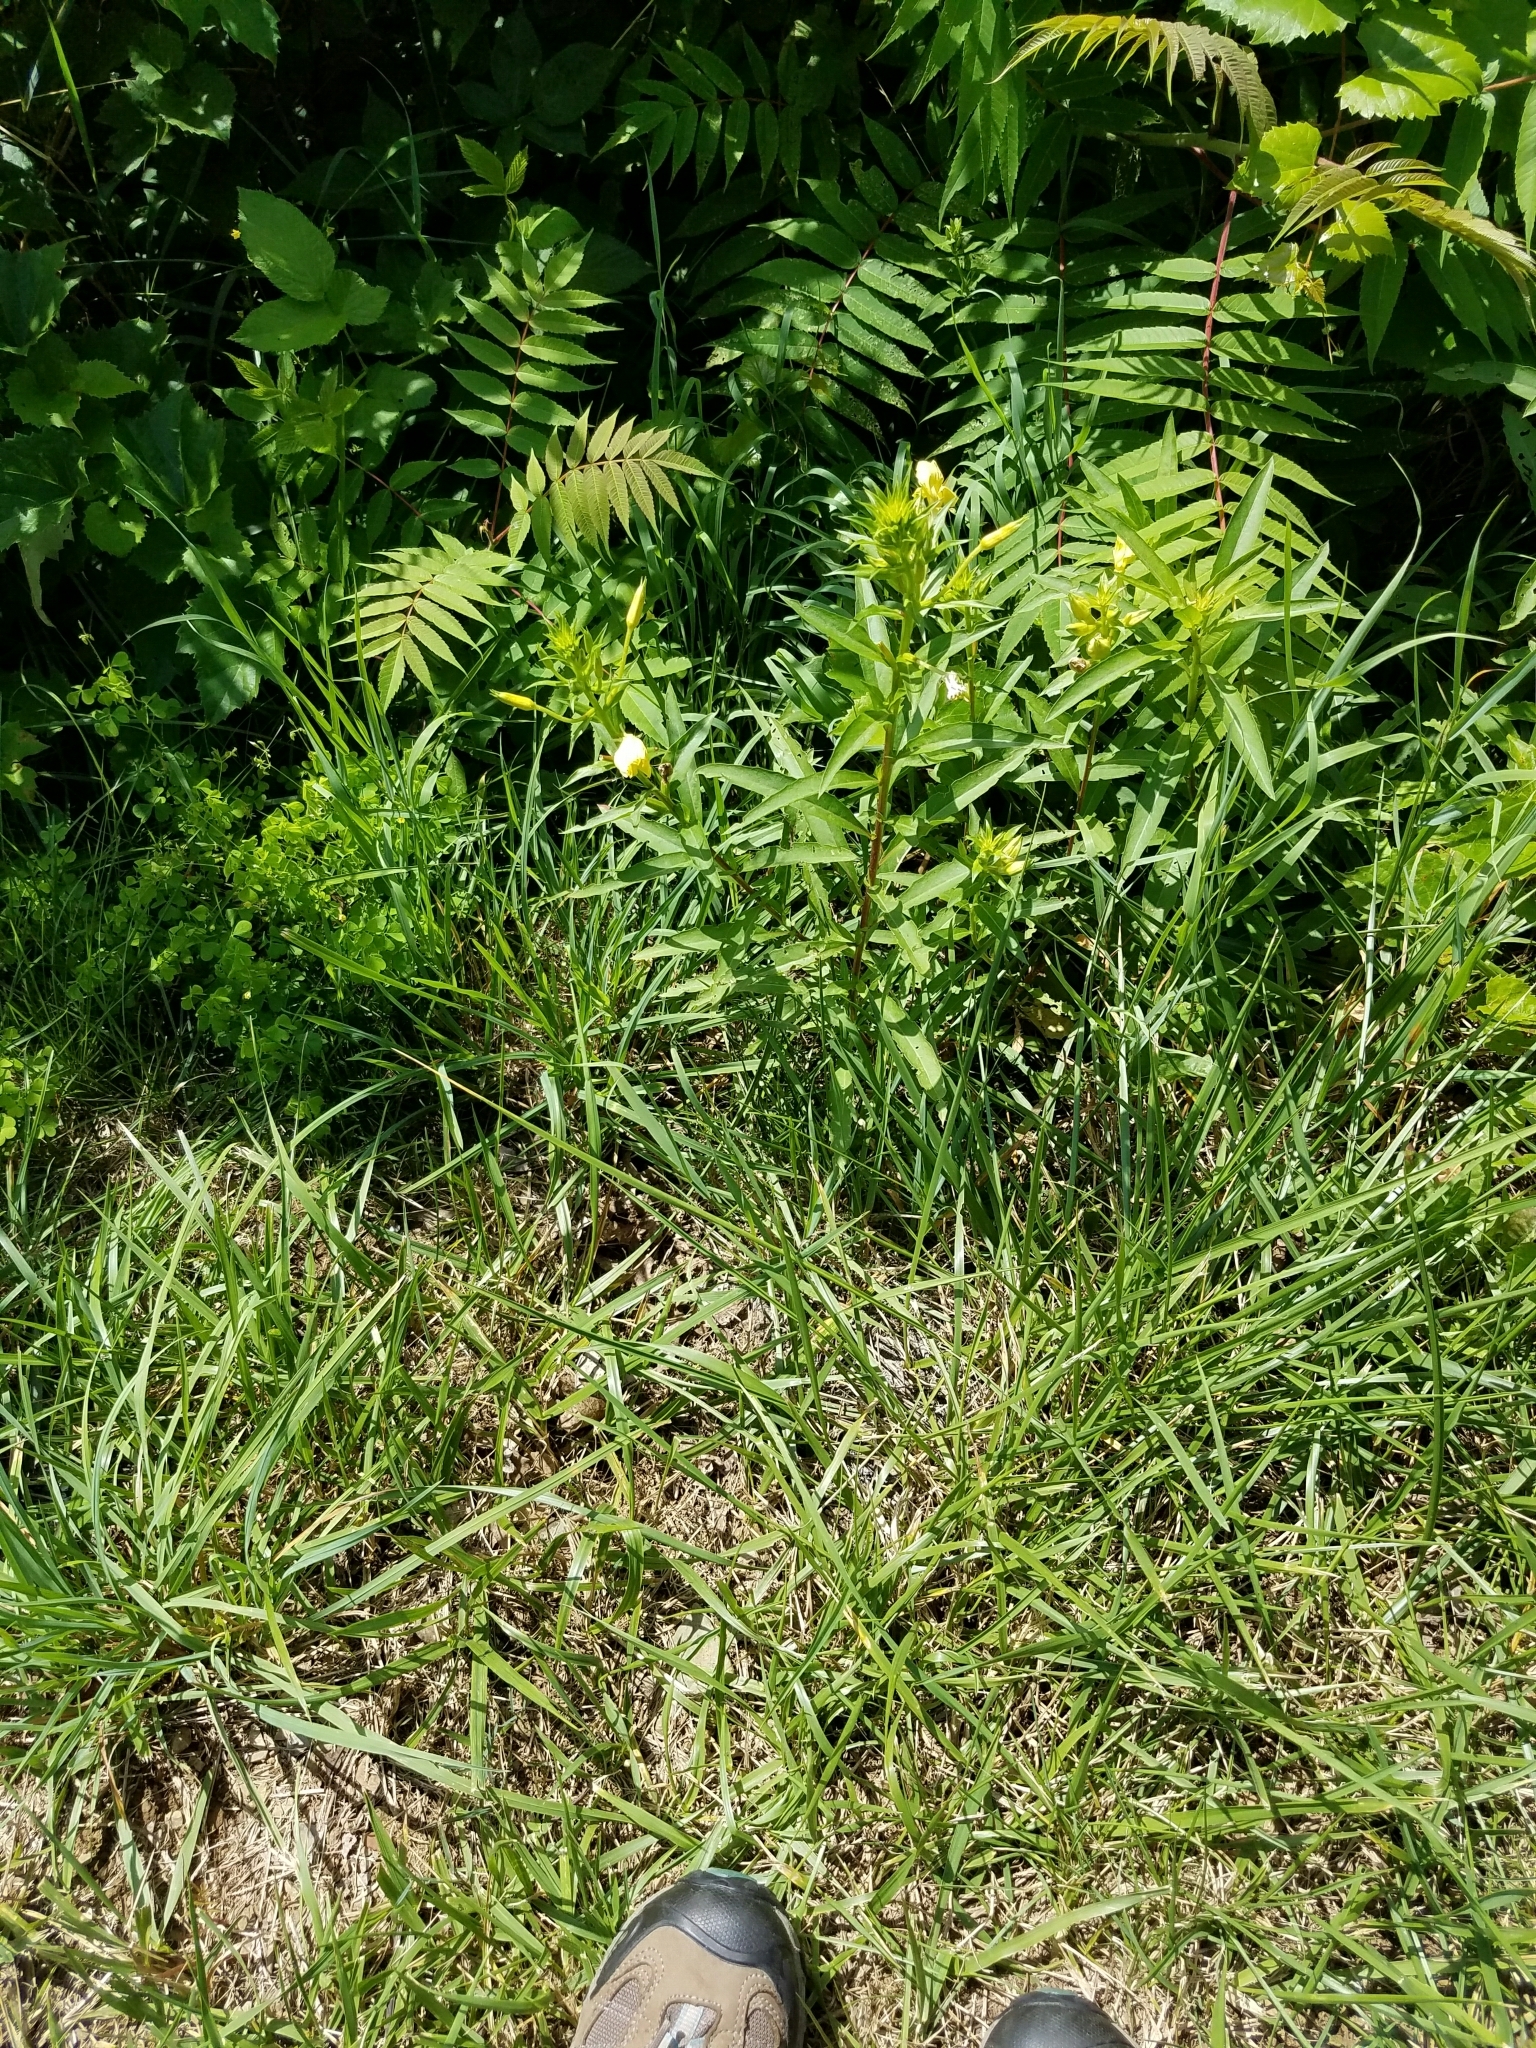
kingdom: Plantae
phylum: Tracheophyta
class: Magnoliopsida
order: Myrtales
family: Onagraceae
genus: Oenothera
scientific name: Oenothera biennis
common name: Common evening-primrose
